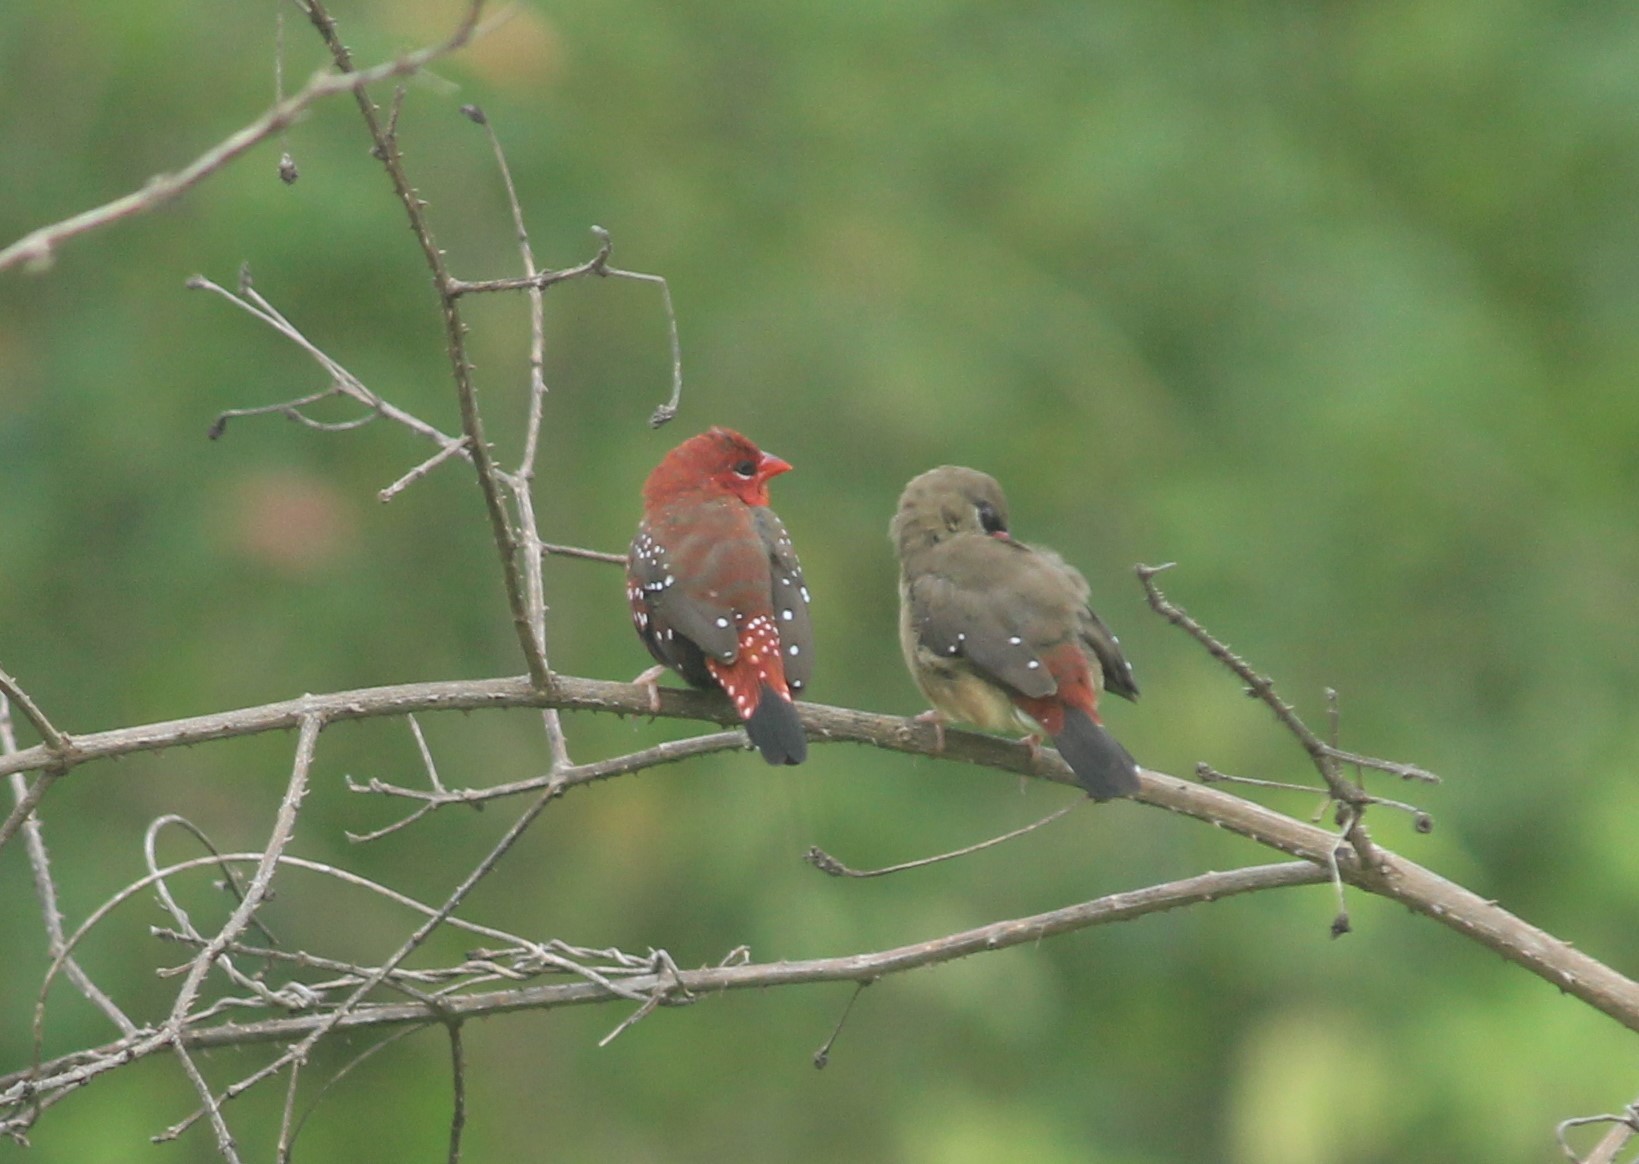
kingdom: Animalia
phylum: Chordata
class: Aves
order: Passeriformes
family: Estrildidae
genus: Amandava
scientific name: Amandava amandava
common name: Red avadavat
